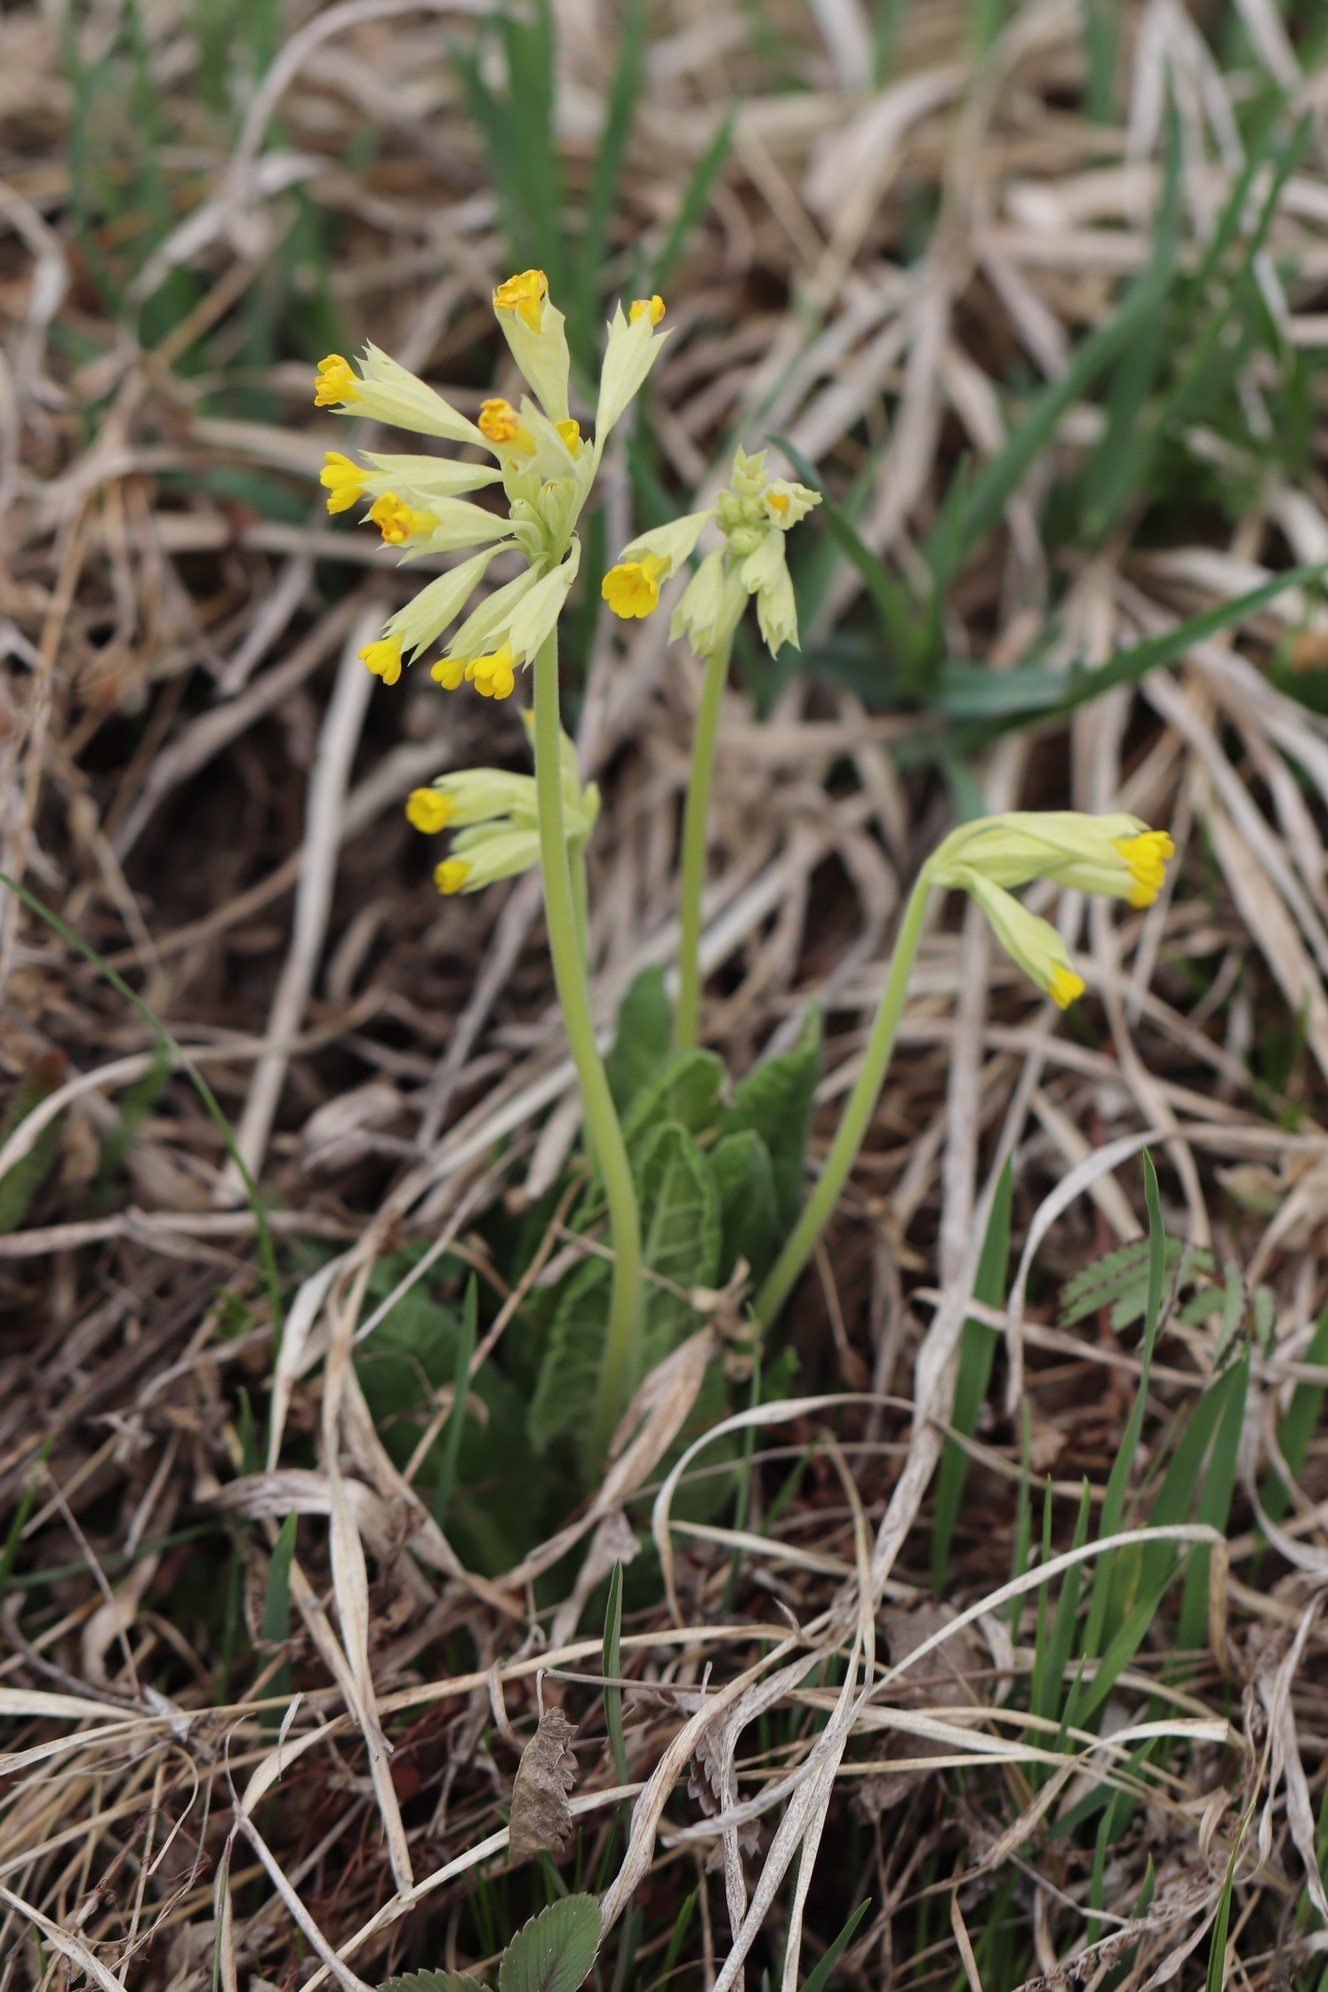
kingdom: Plantae
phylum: Tracheophyta
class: Magnoliopsida
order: Ericales
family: Primulaceae
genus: Primula
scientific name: Primula veris
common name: Cowslip
